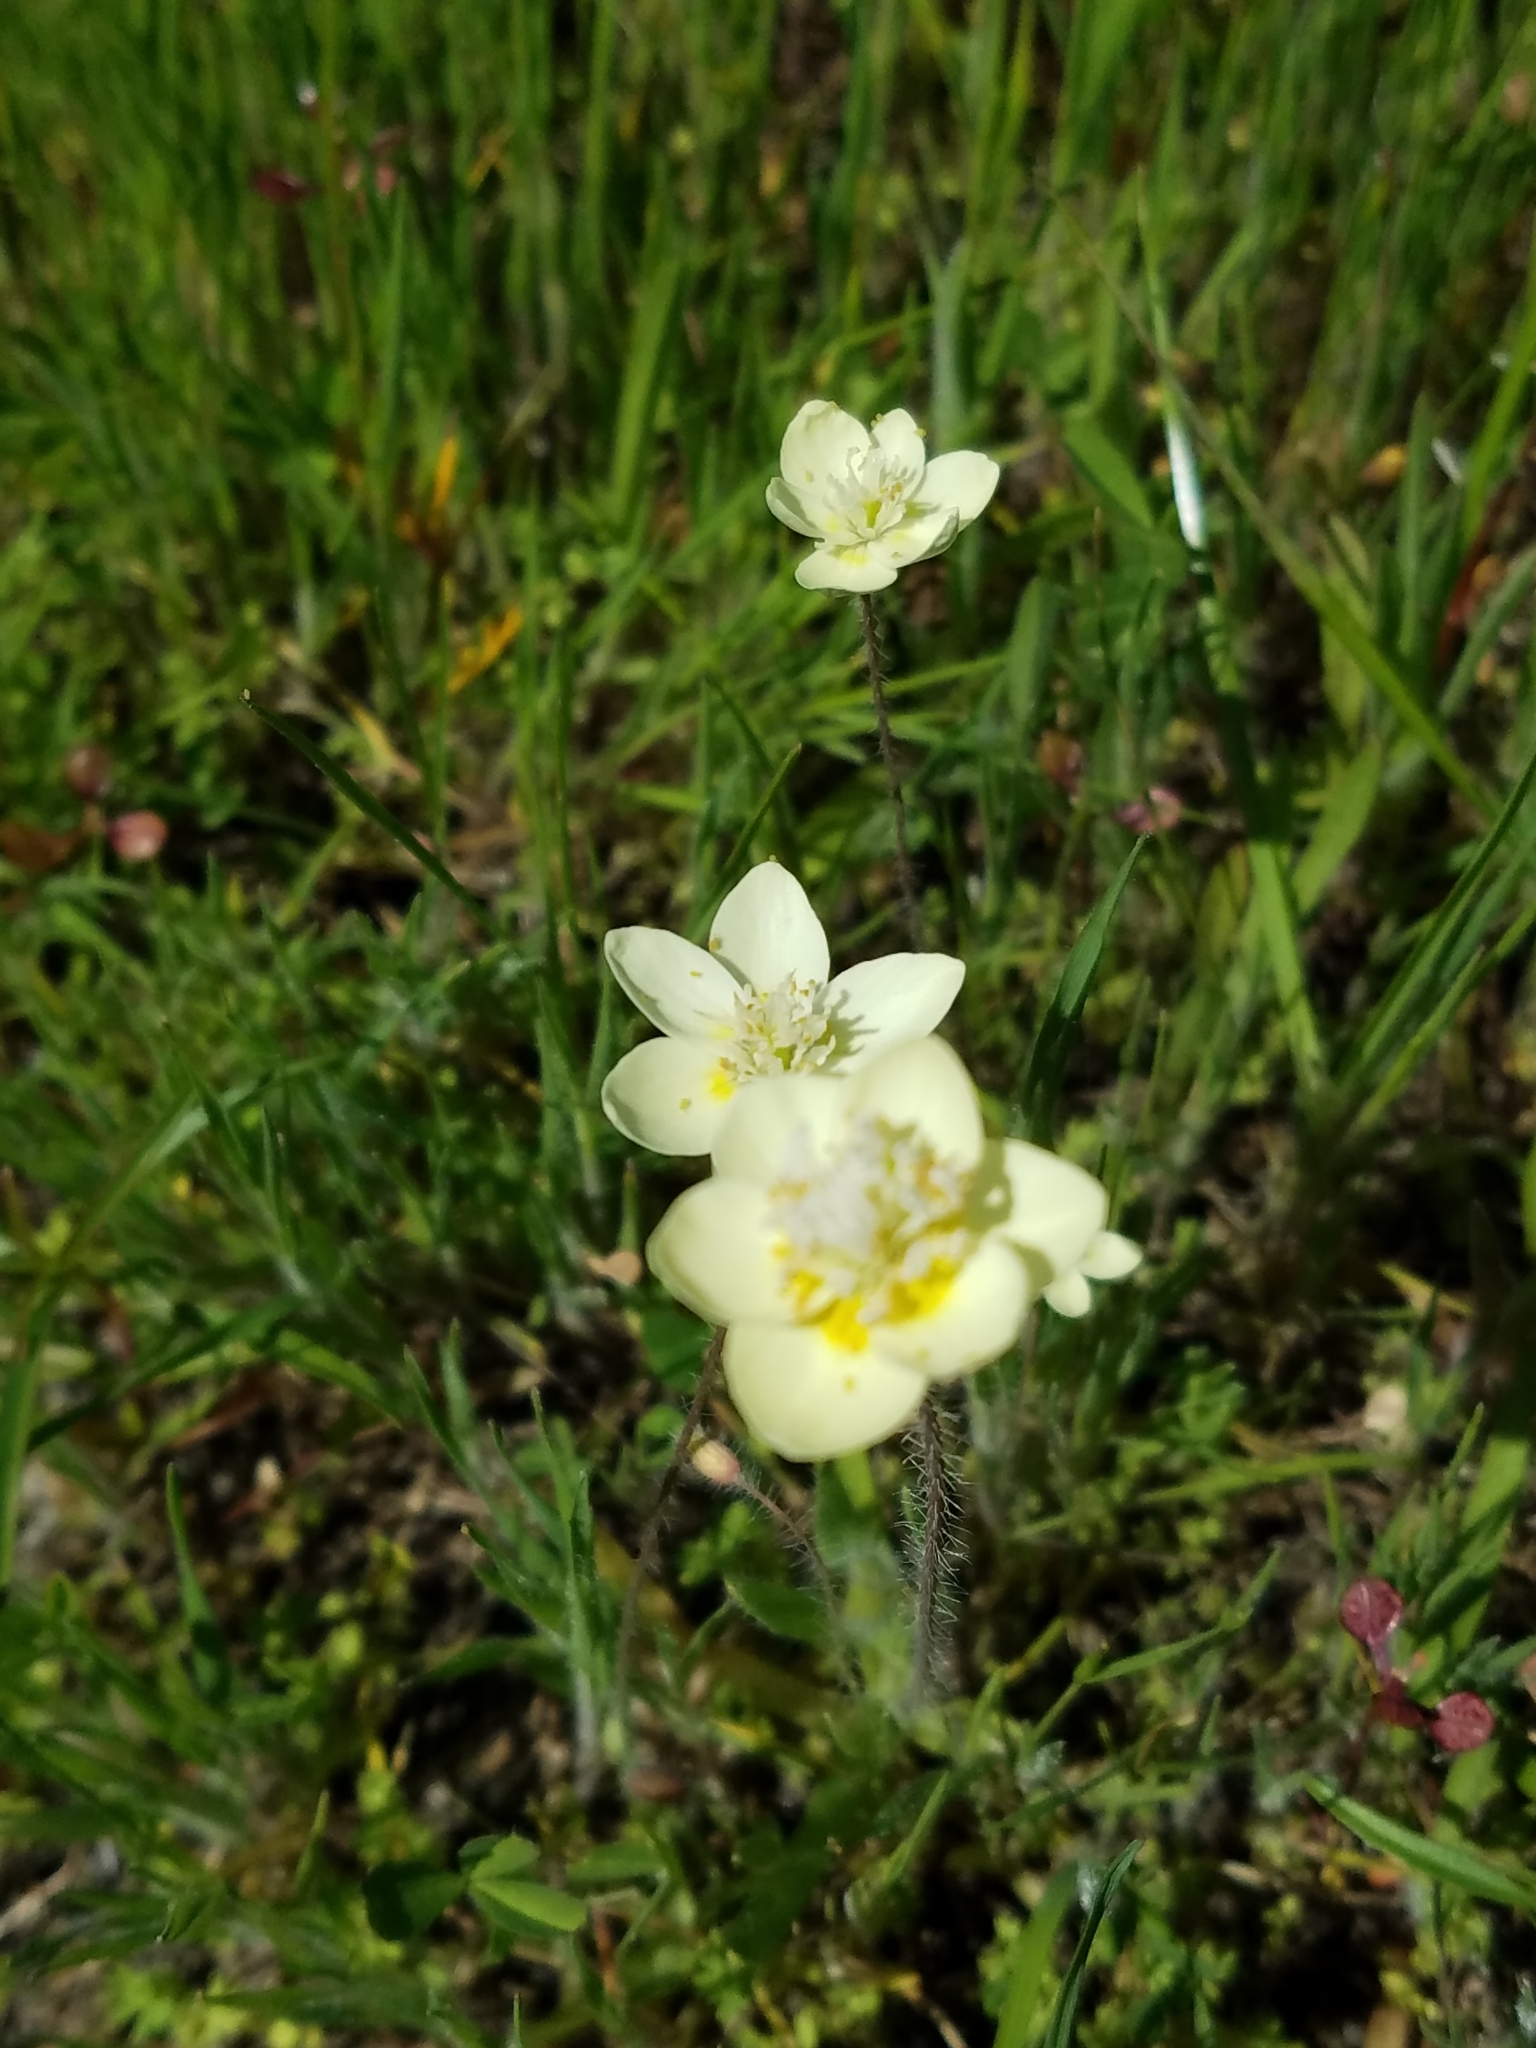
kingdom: Plantae
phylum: Tracheophyta
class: Magnoliopsida
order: Ranunculales
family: Papaveraceae
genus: Platystemon
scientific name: Platystemon californicus
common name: Cream-cups
